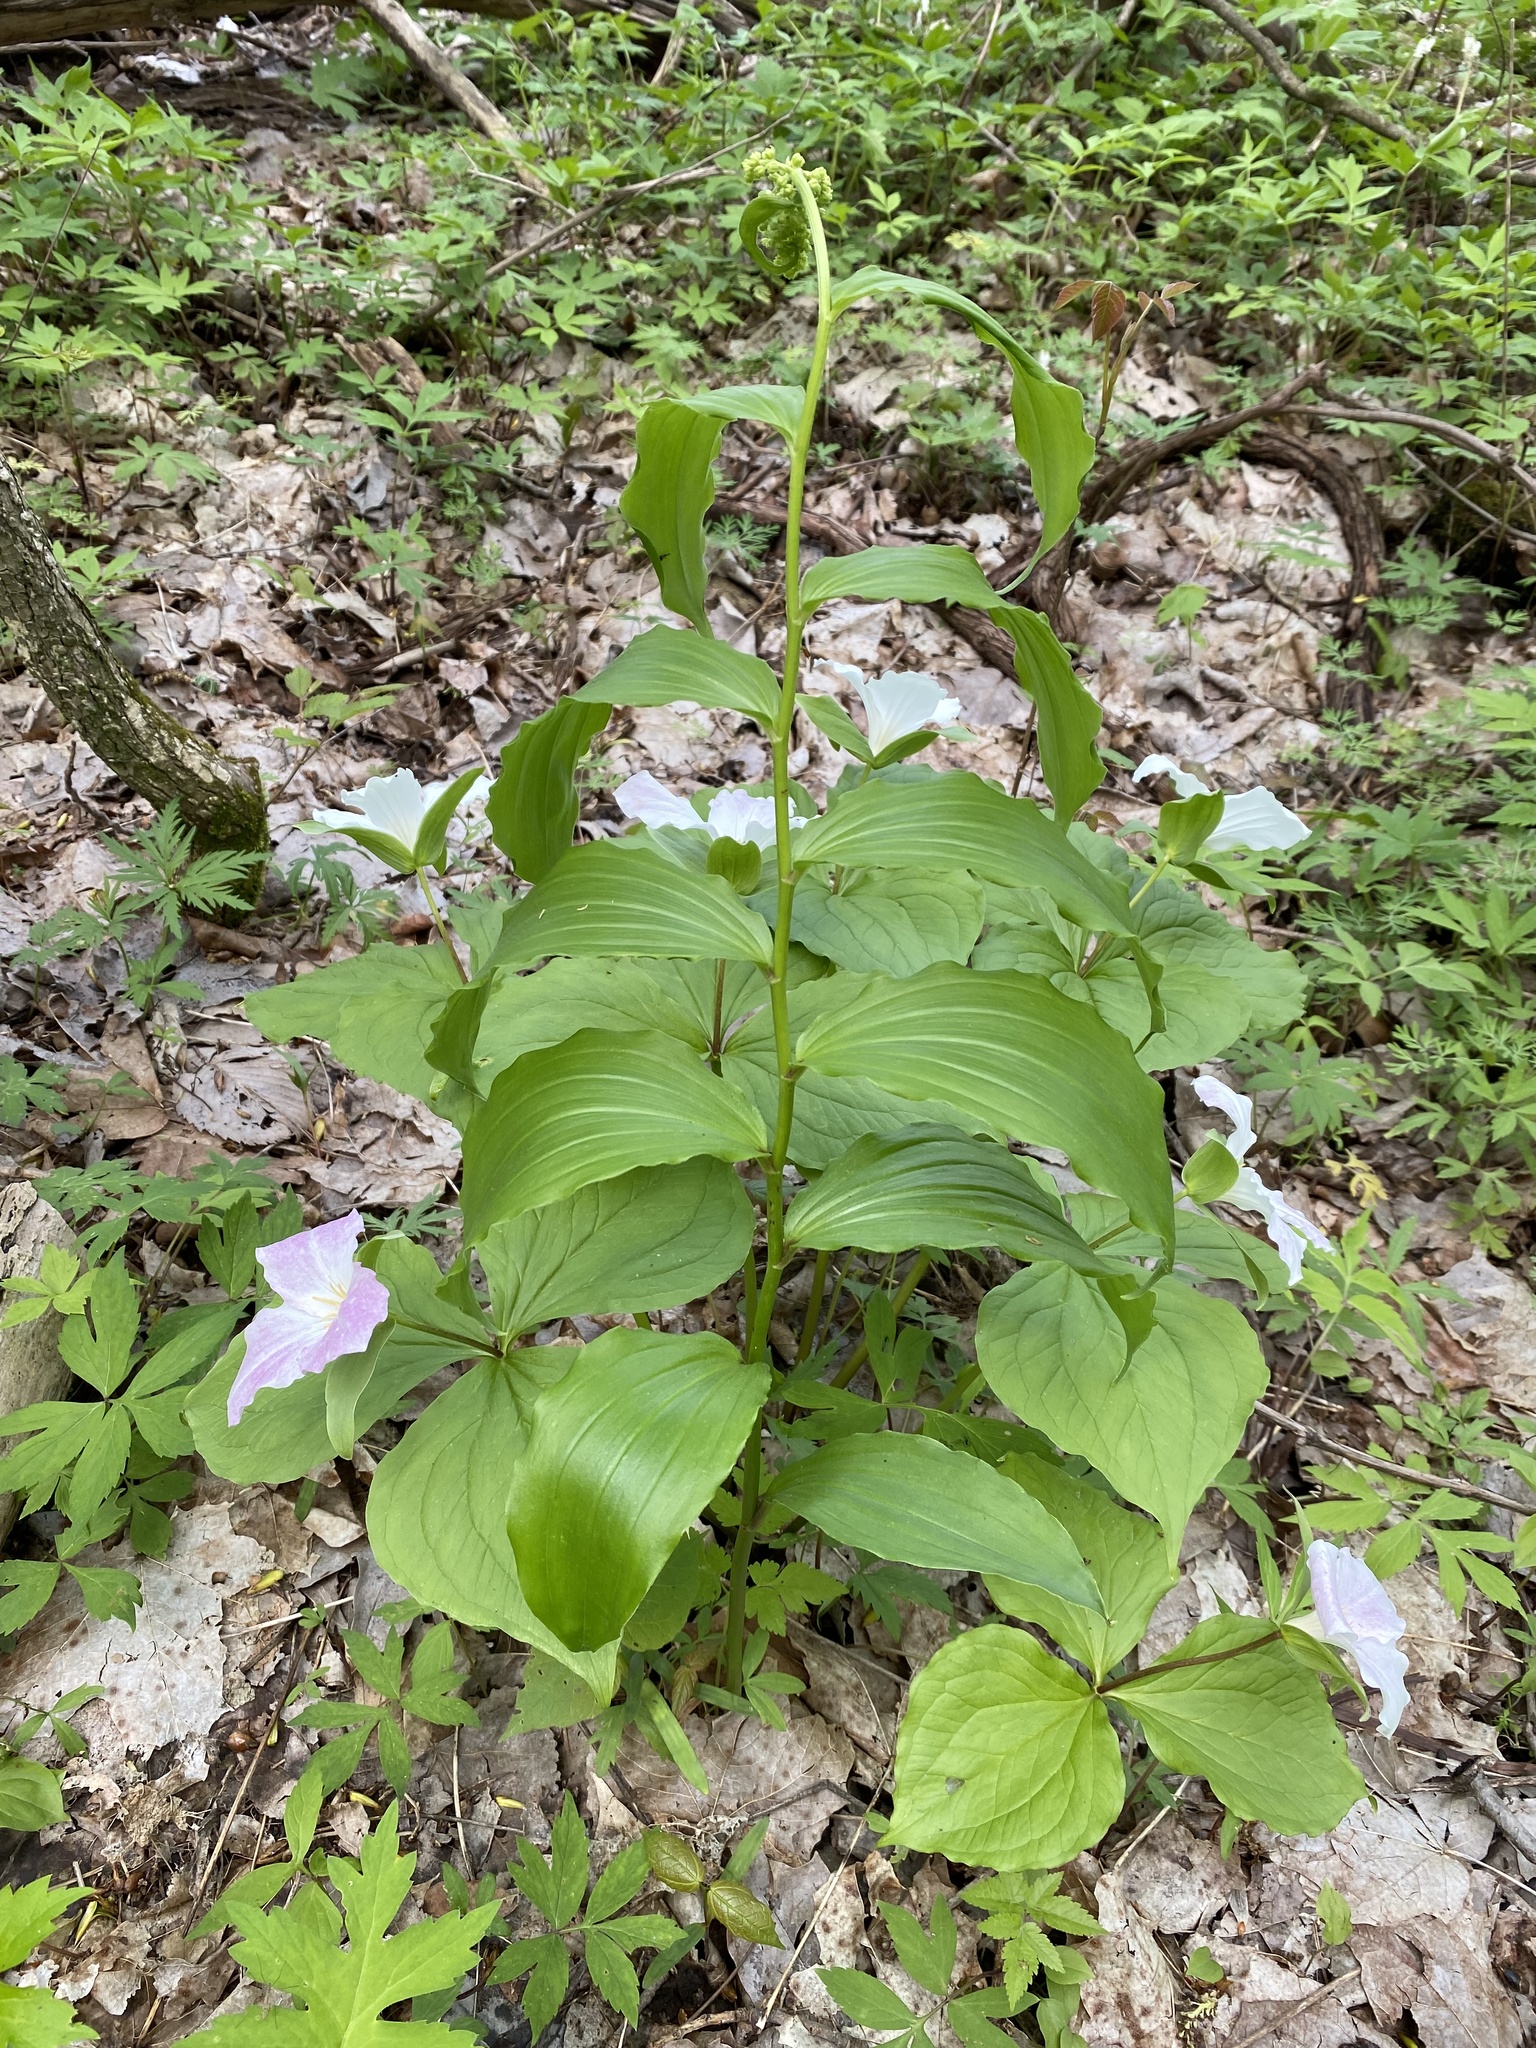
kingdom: Plantae
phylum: Tracheophyta
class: Liliopsida
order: Asparagales
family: Asparagaceae
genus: Maianthemum
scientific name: Maianthemum racemosum
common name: False spikenard
